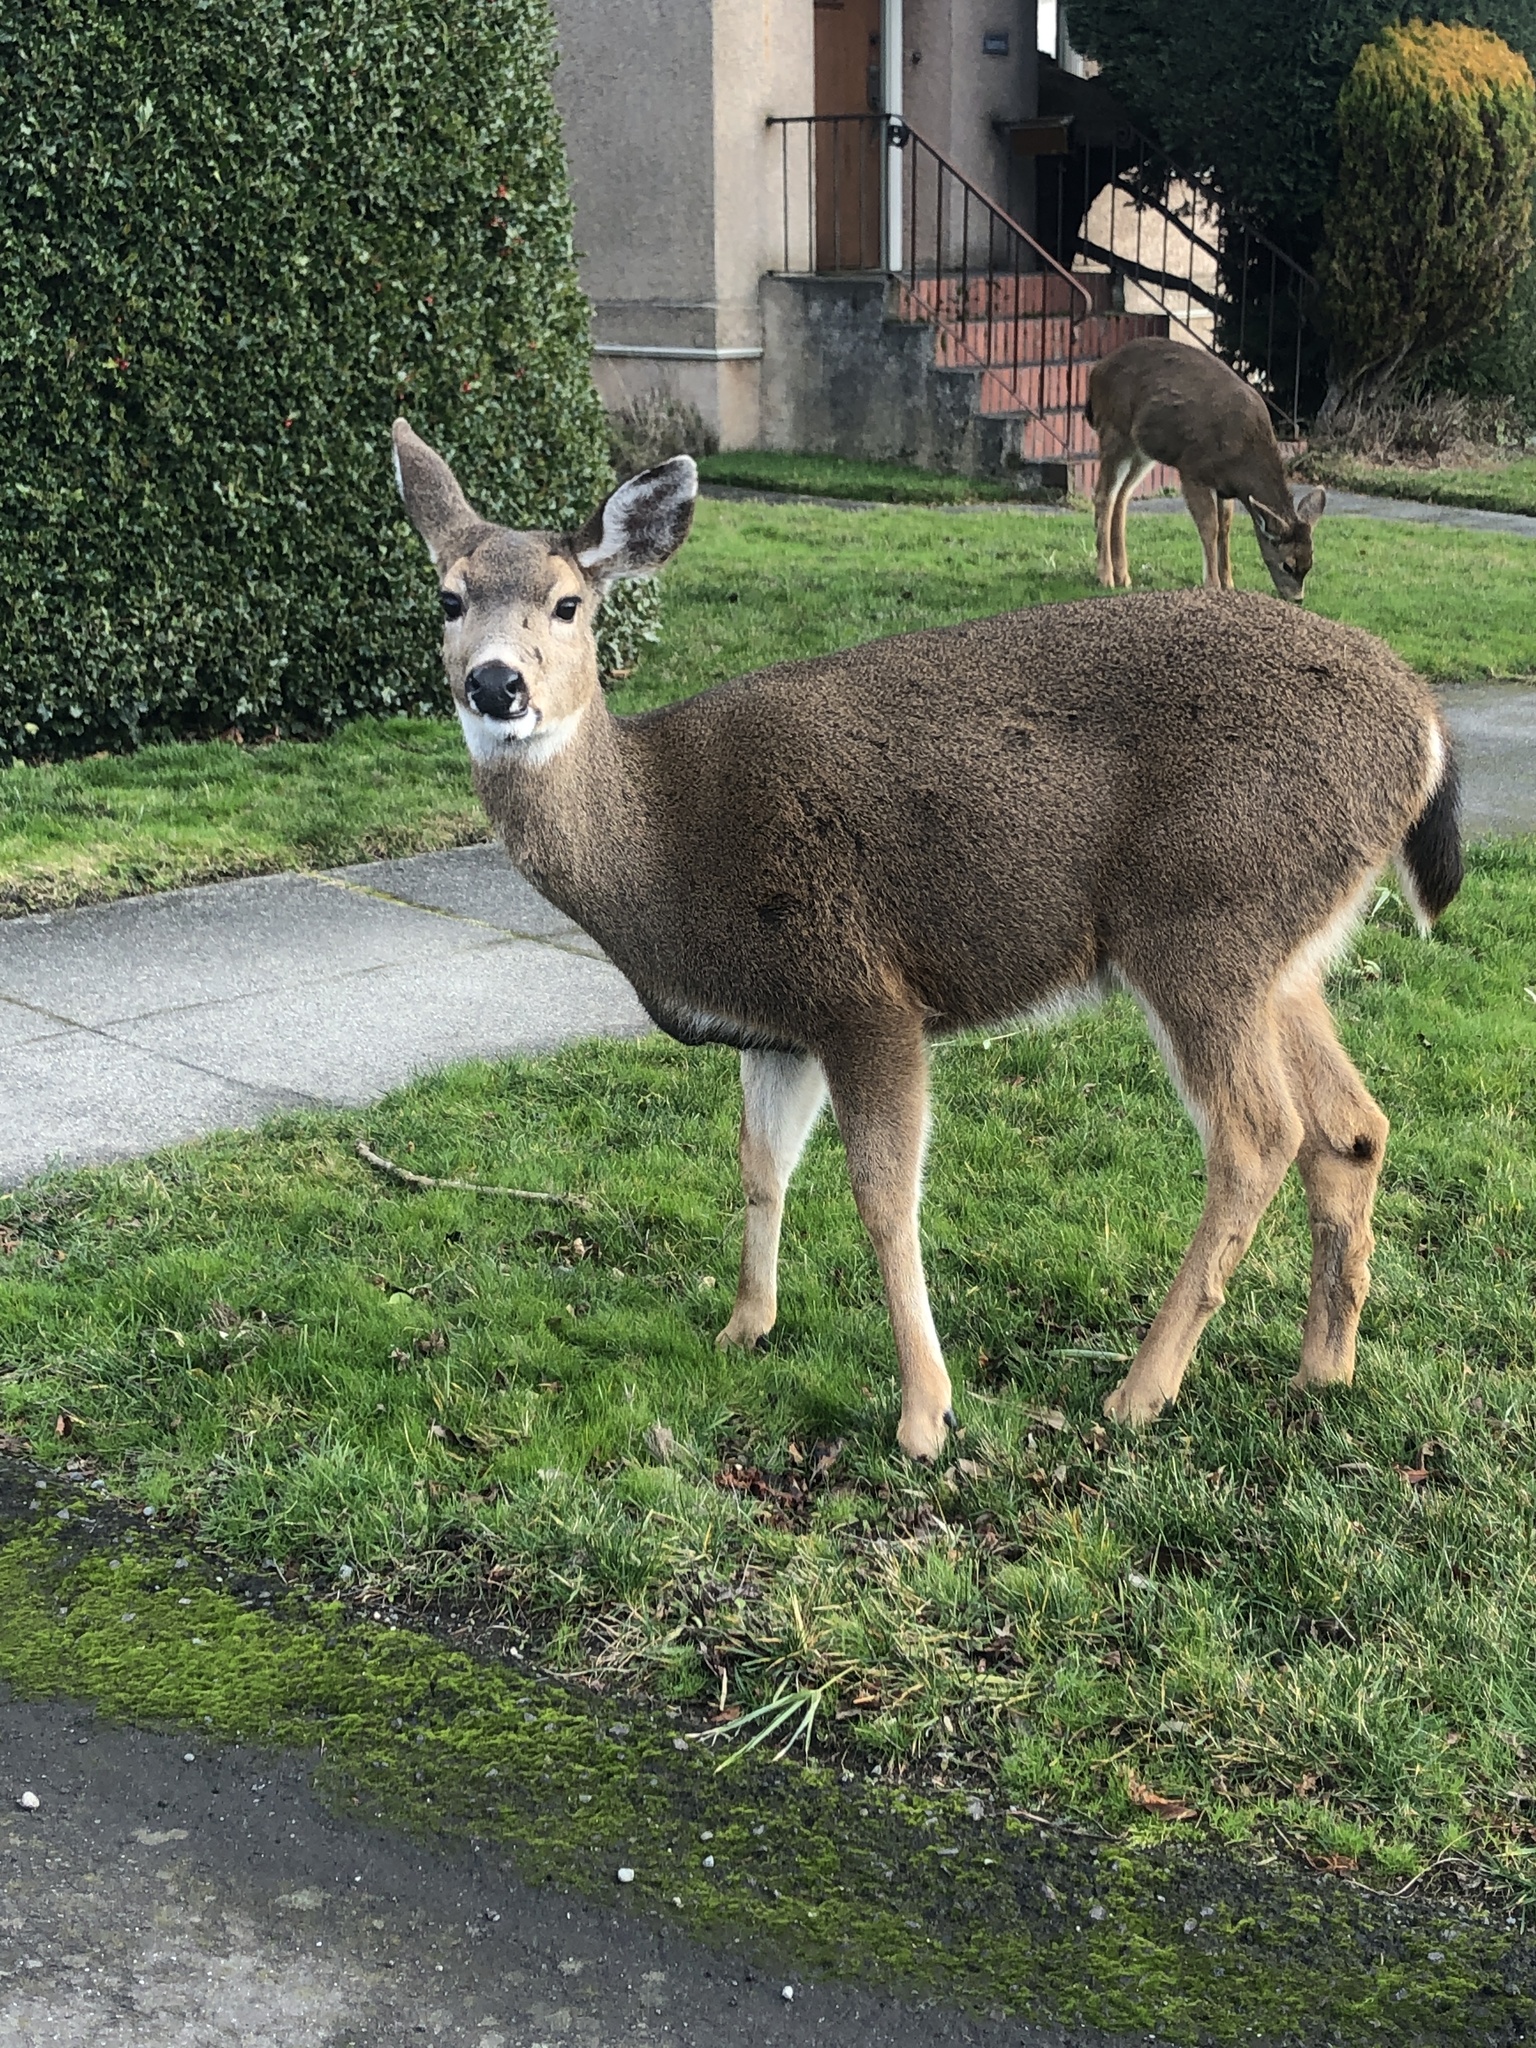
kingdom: Animalia
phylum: Chordata
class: Mammalia
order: Artiodactyla
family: Cervidae
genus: Odocoileus
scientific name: Odocoileus hemionus
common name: Mule deer
